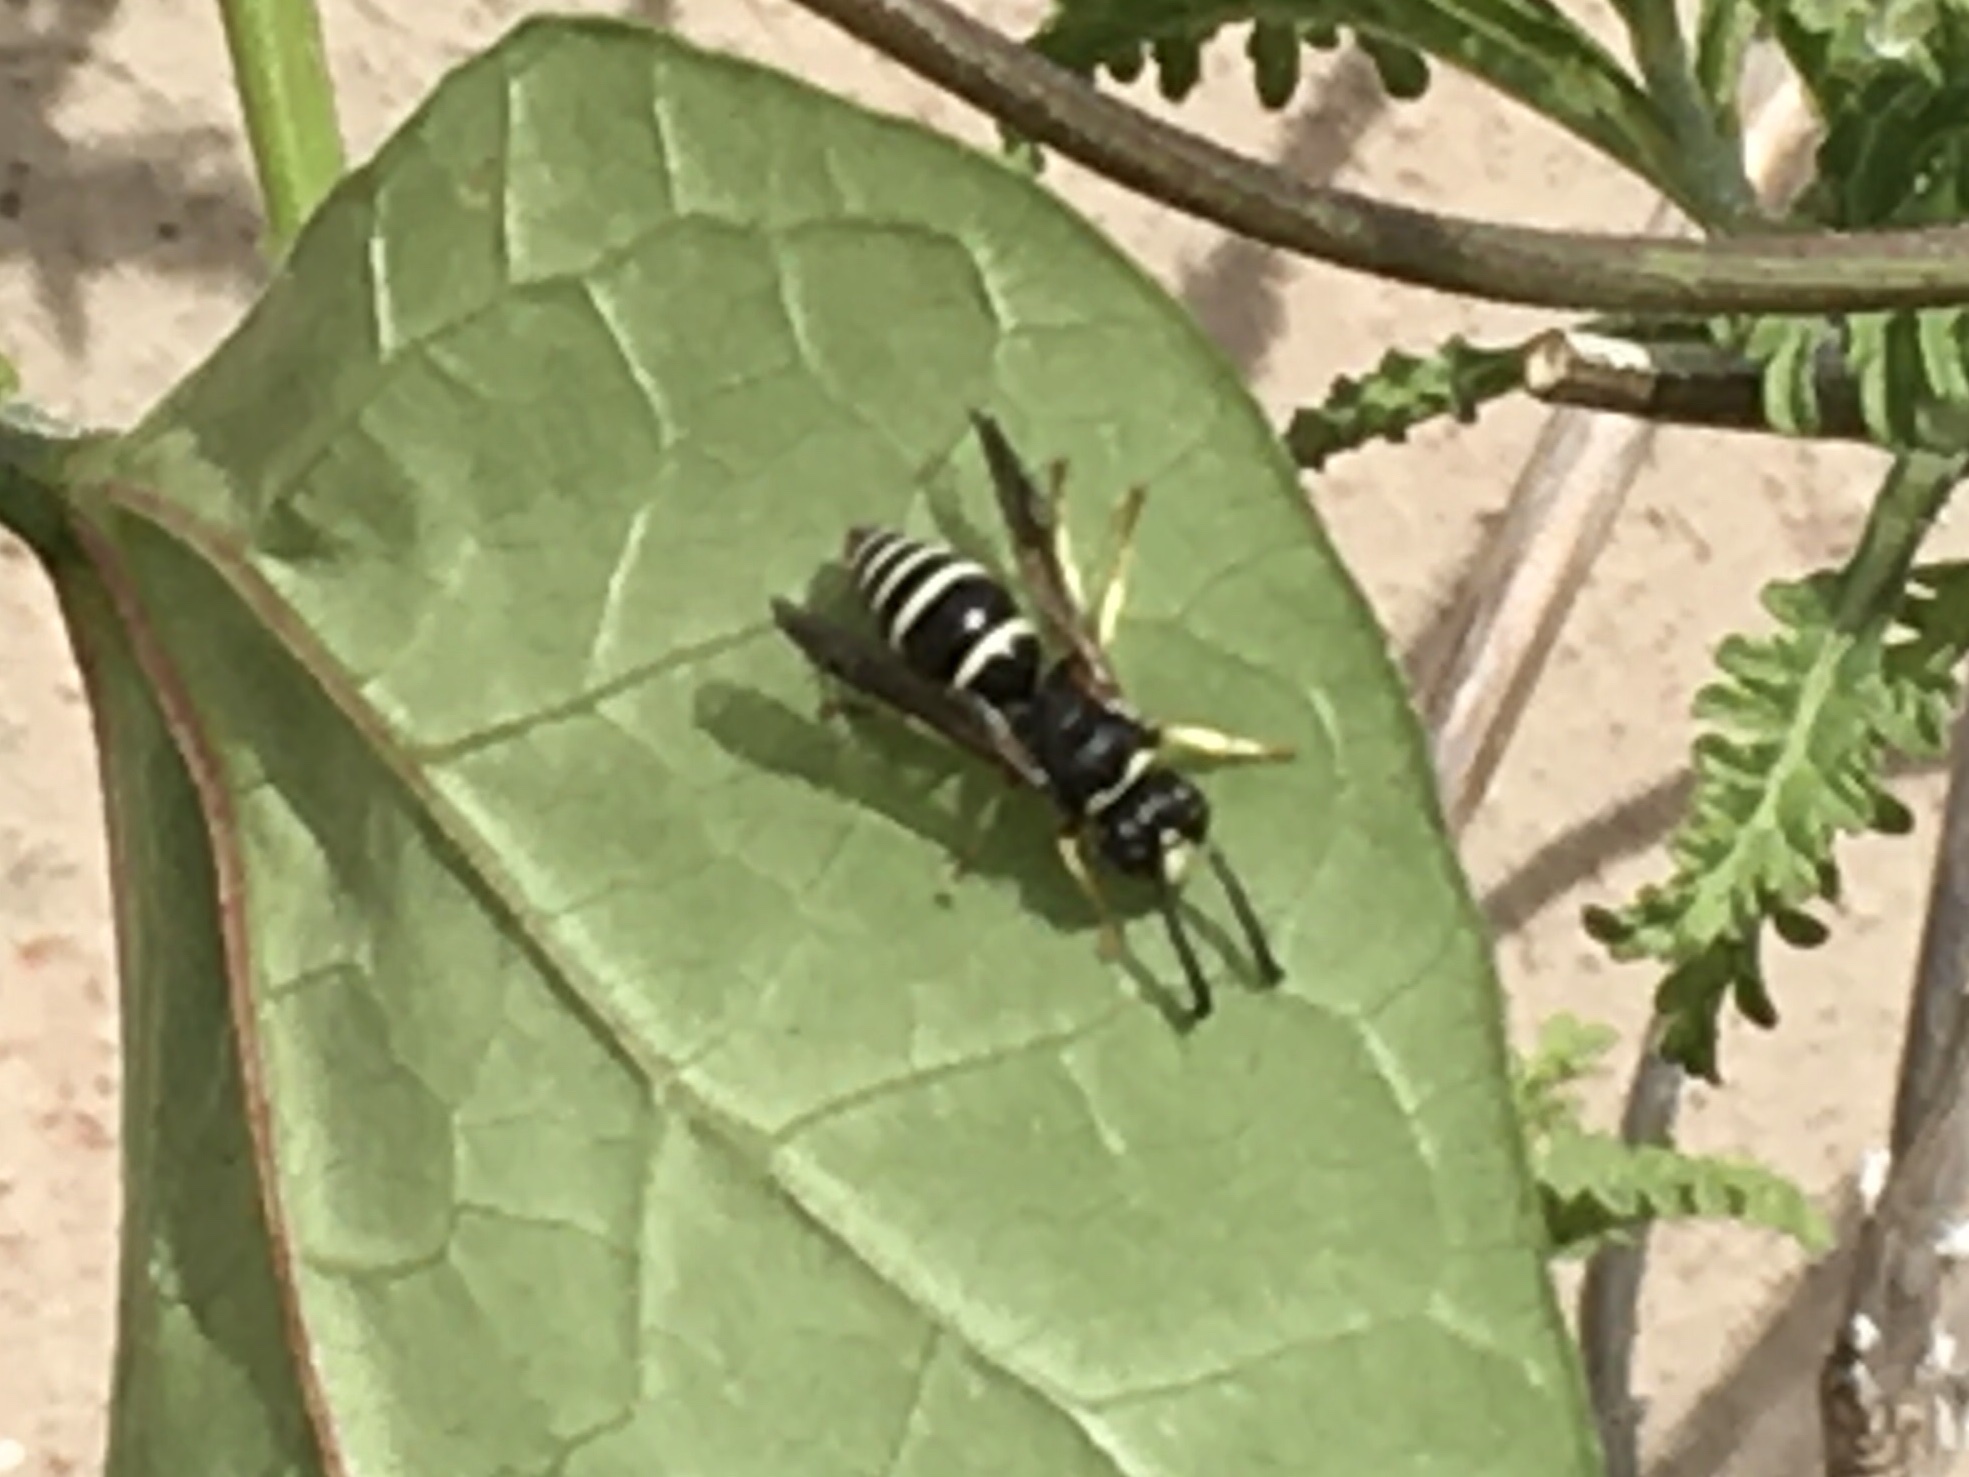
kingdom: Animalia
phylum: Arthropoda
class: Insecta
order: Hymenoptera
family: Vespidae
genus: Ancistrocerus
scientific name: Ancistrocerus
